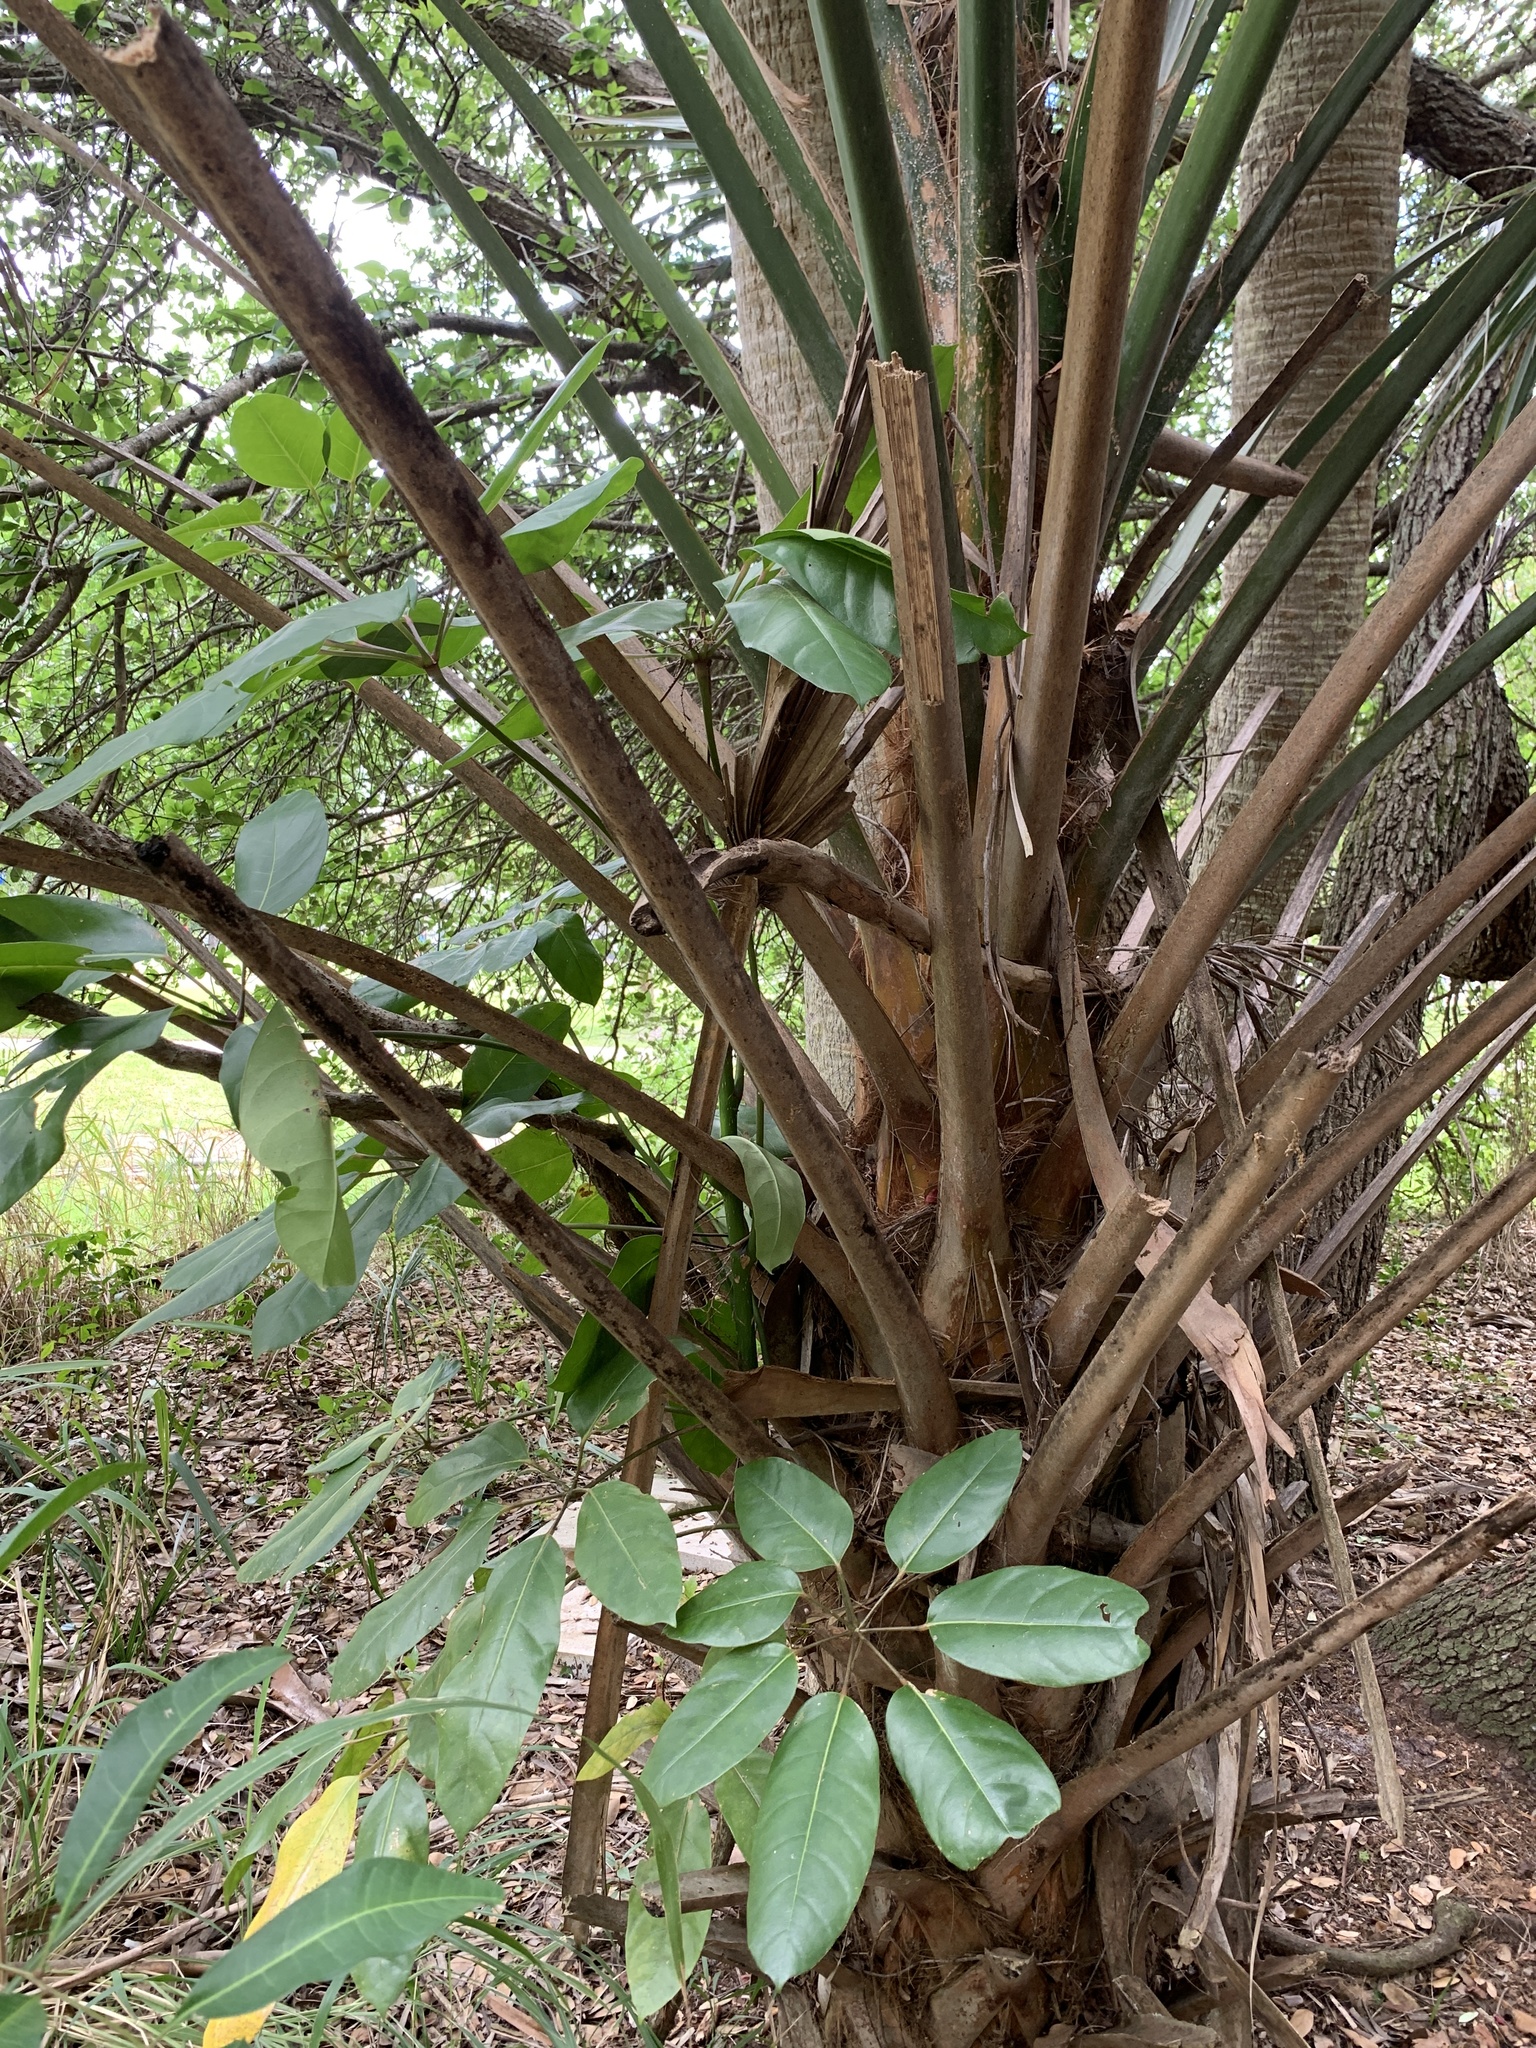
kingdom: Plantae
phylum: Tracheophyta
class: Magnoliopsida
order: Apiales
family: Araliaceae
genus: Heptapleurum
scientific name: Heptapleurum actinophyllum
